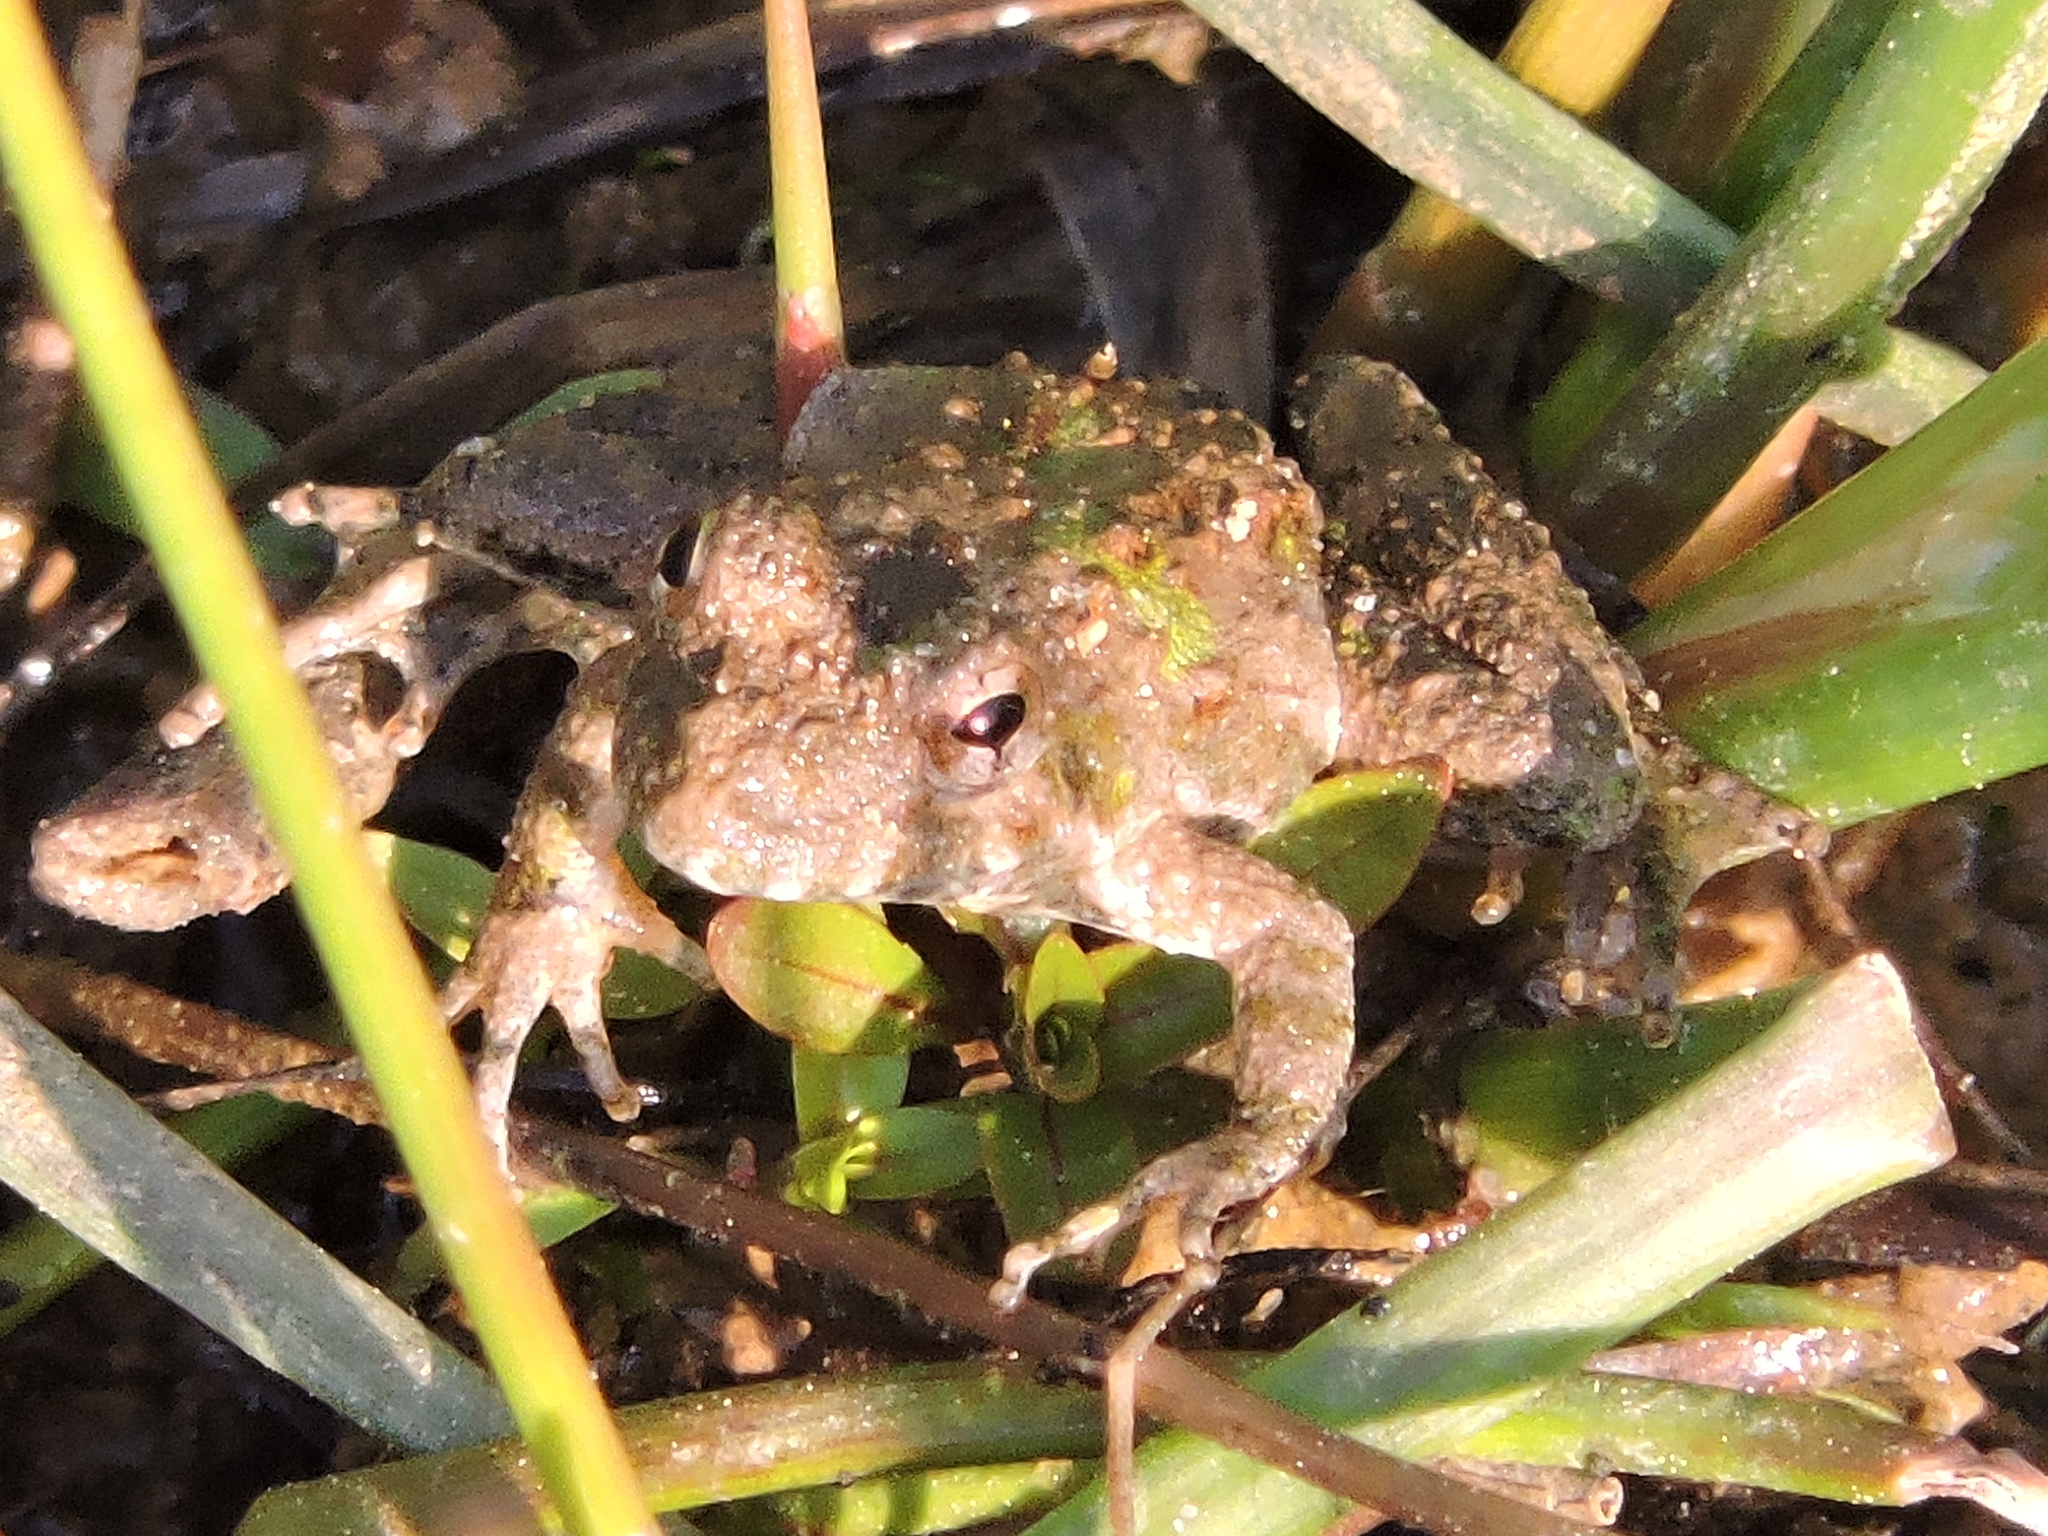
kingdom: Animalia
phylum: Chordata
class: Amphibia
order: Anura
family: Hylidae
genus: Acris
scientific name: Acris blanchardi
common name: Blanchard's cricket frog
